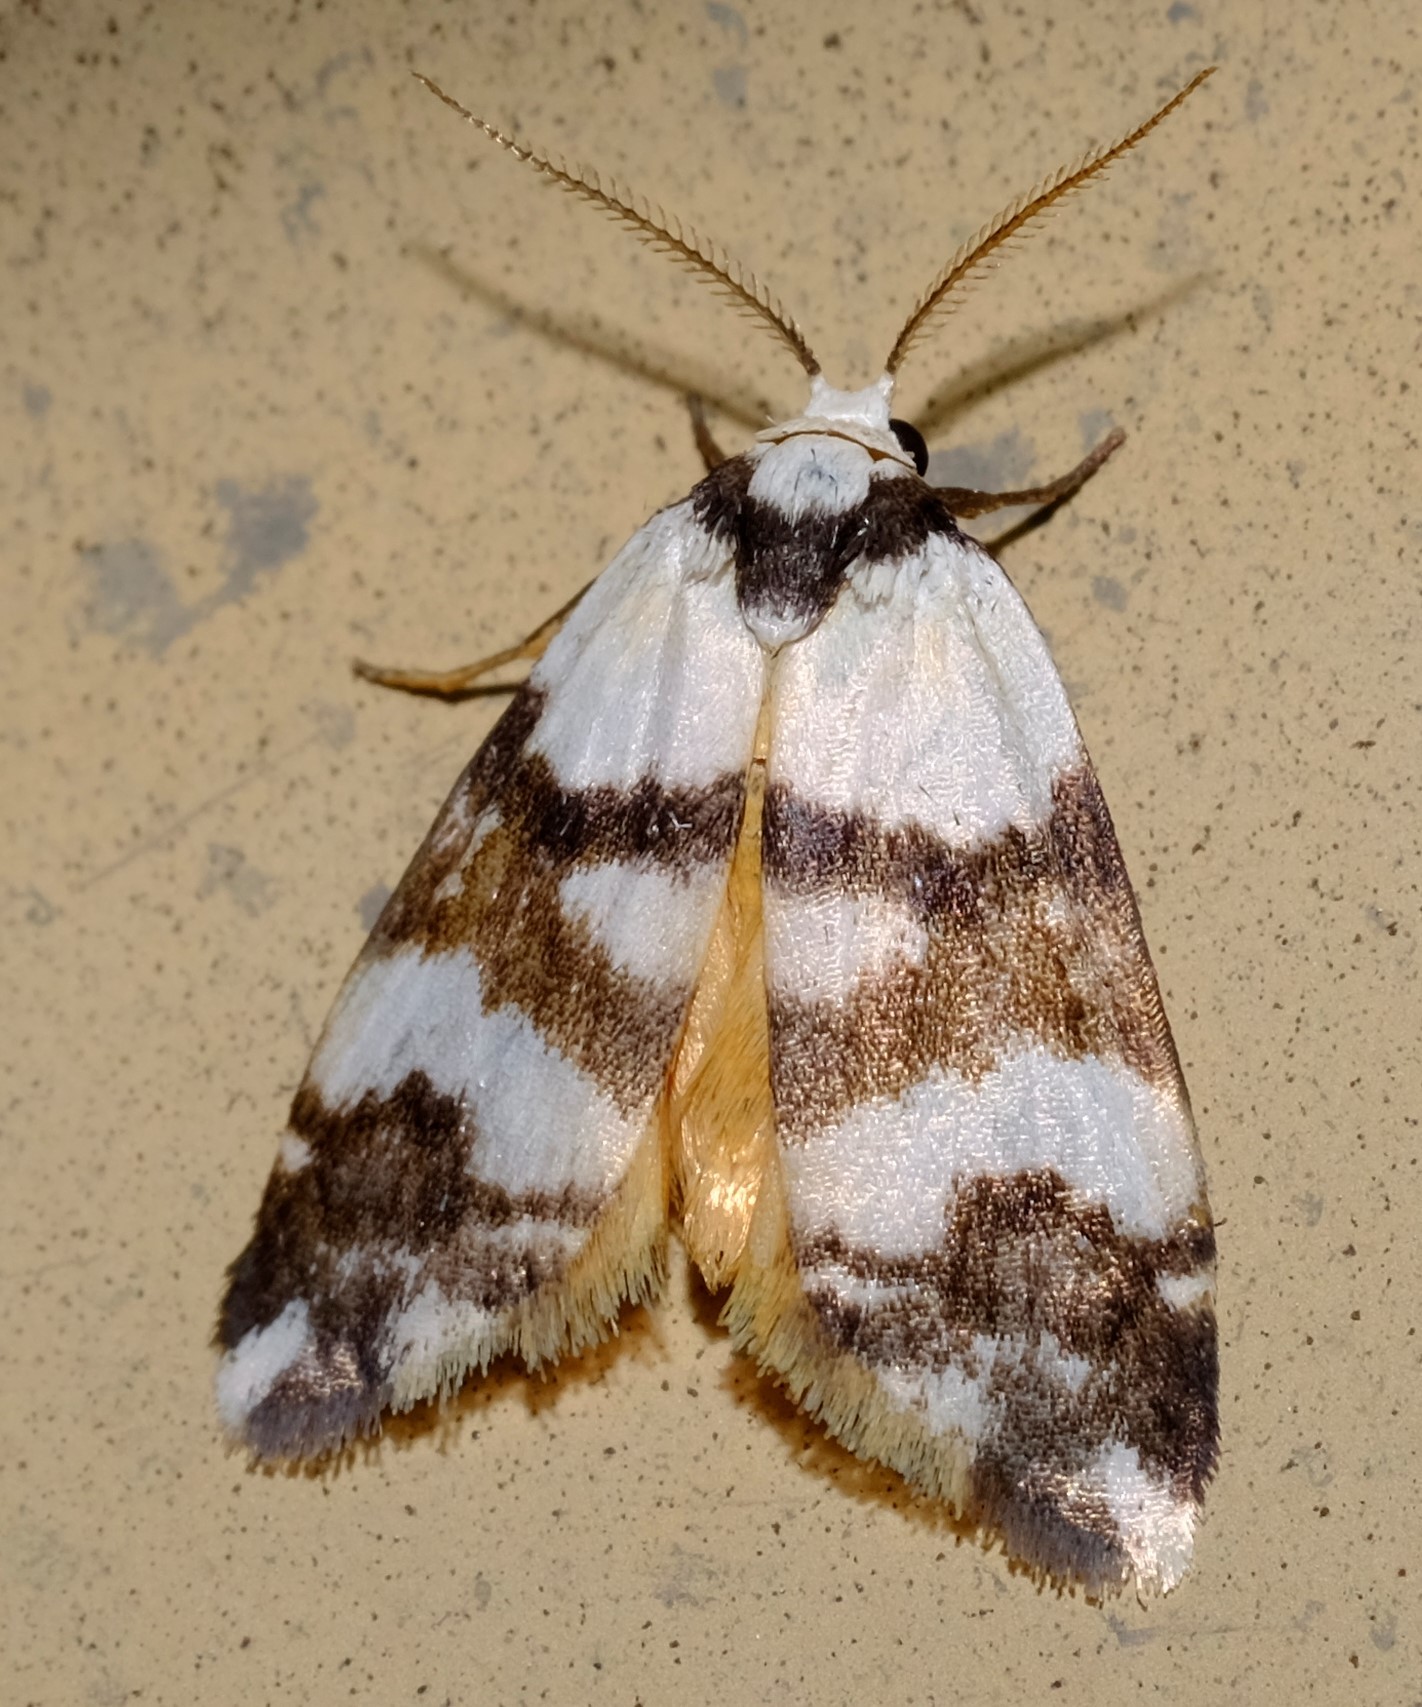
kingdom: Animalia
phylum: Arthropoda
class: Insecta
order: Lepidoptera
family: Erebidae
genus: Thallarcha
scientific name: Thallarcha albicollis
